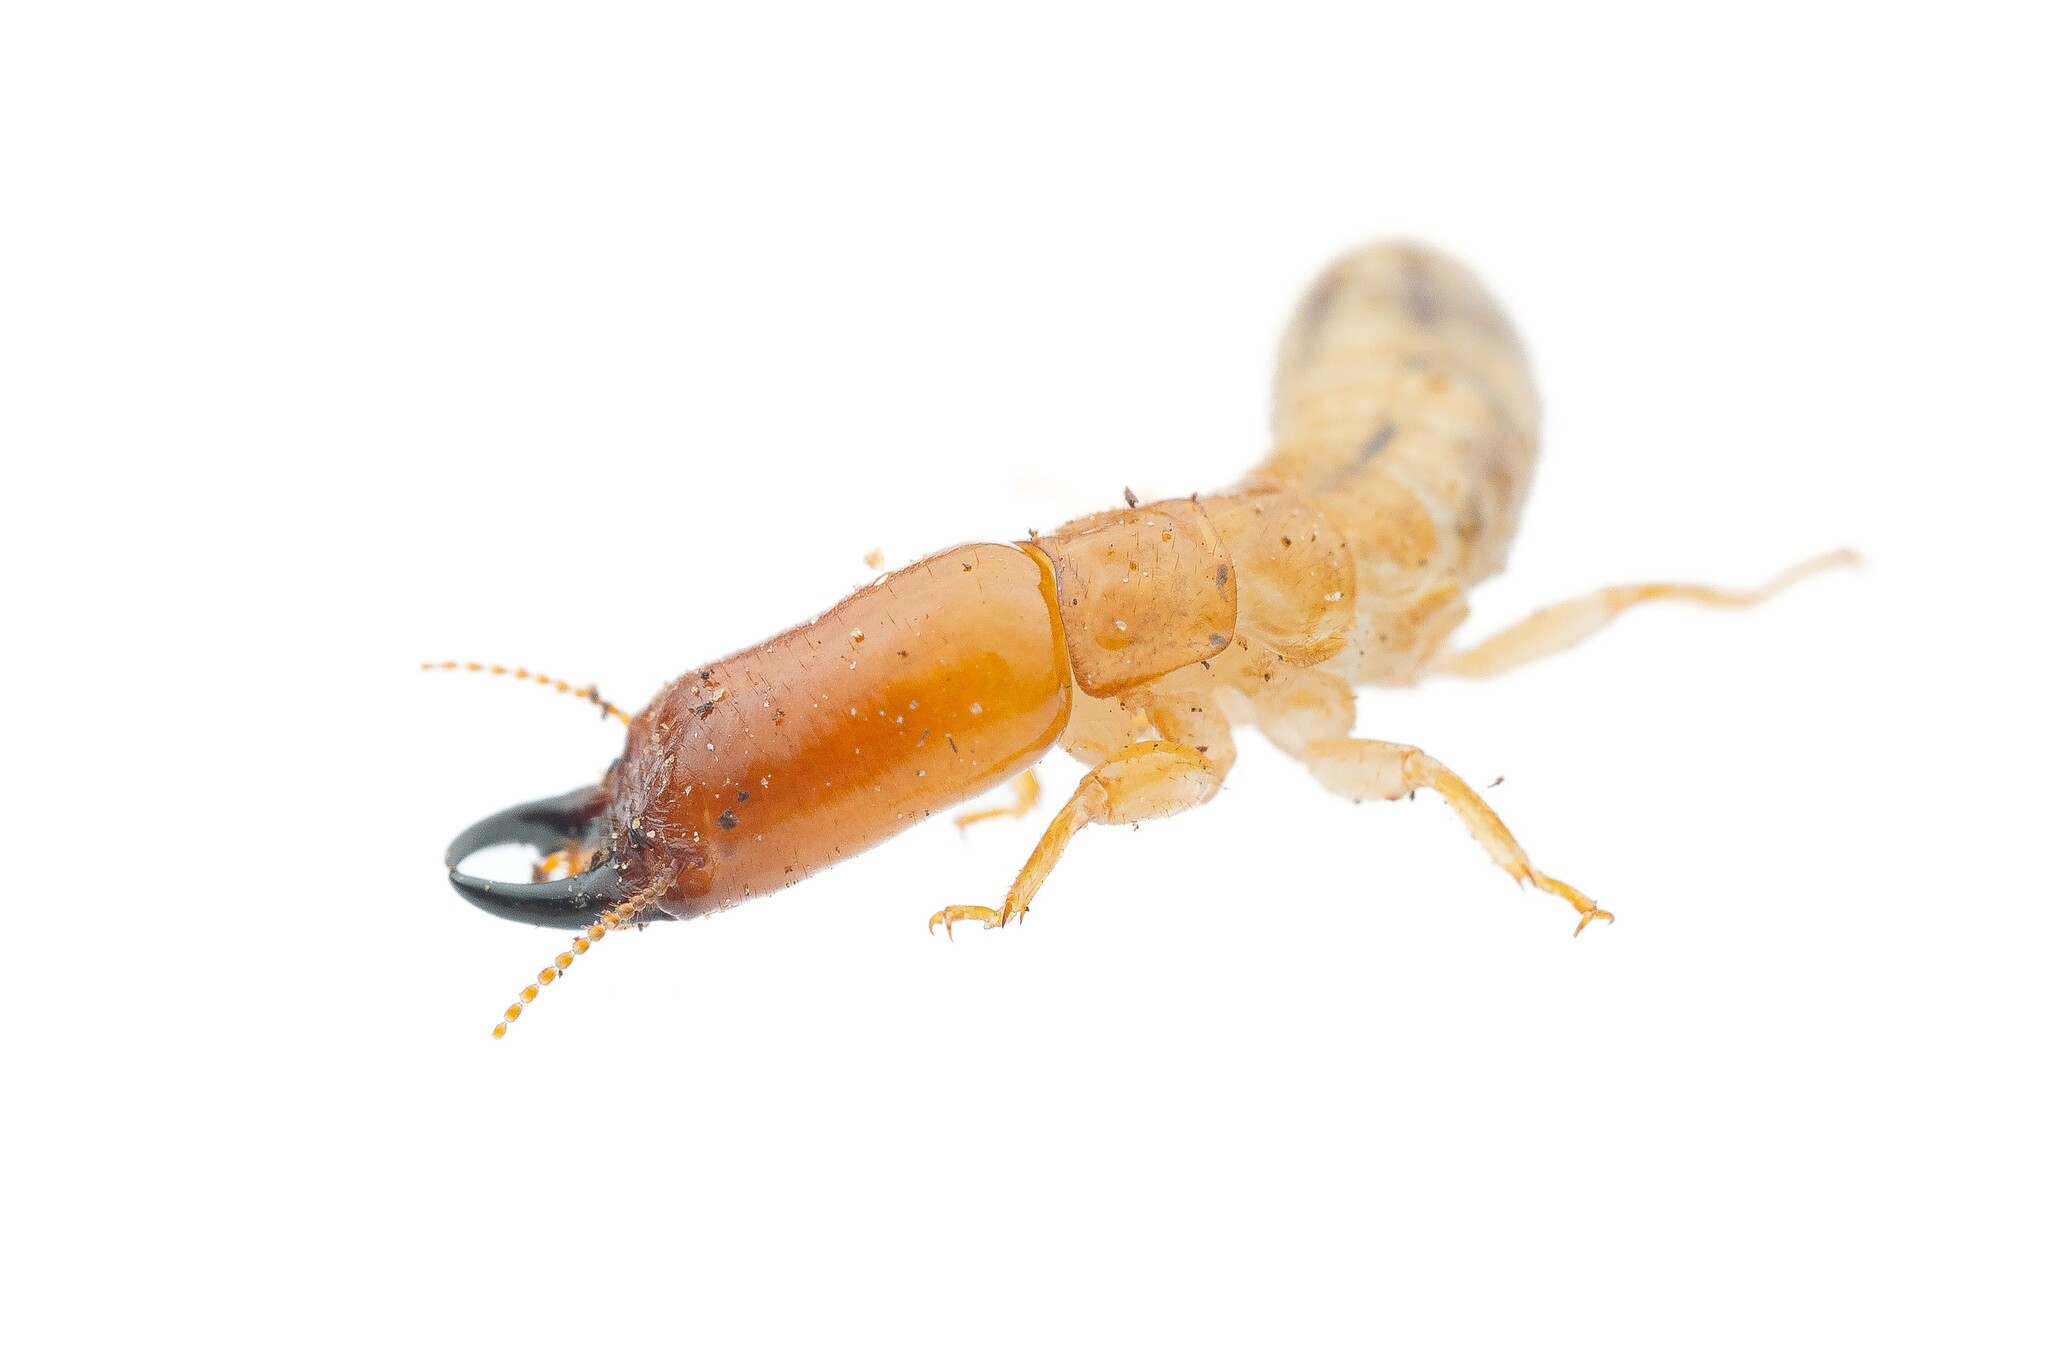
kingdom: Animalia
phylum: Arthropoda
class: Insecta
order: Blattodea
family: Kalotermitidae
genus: Paraneotermes
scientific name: Paraneotermes simplicicornis
